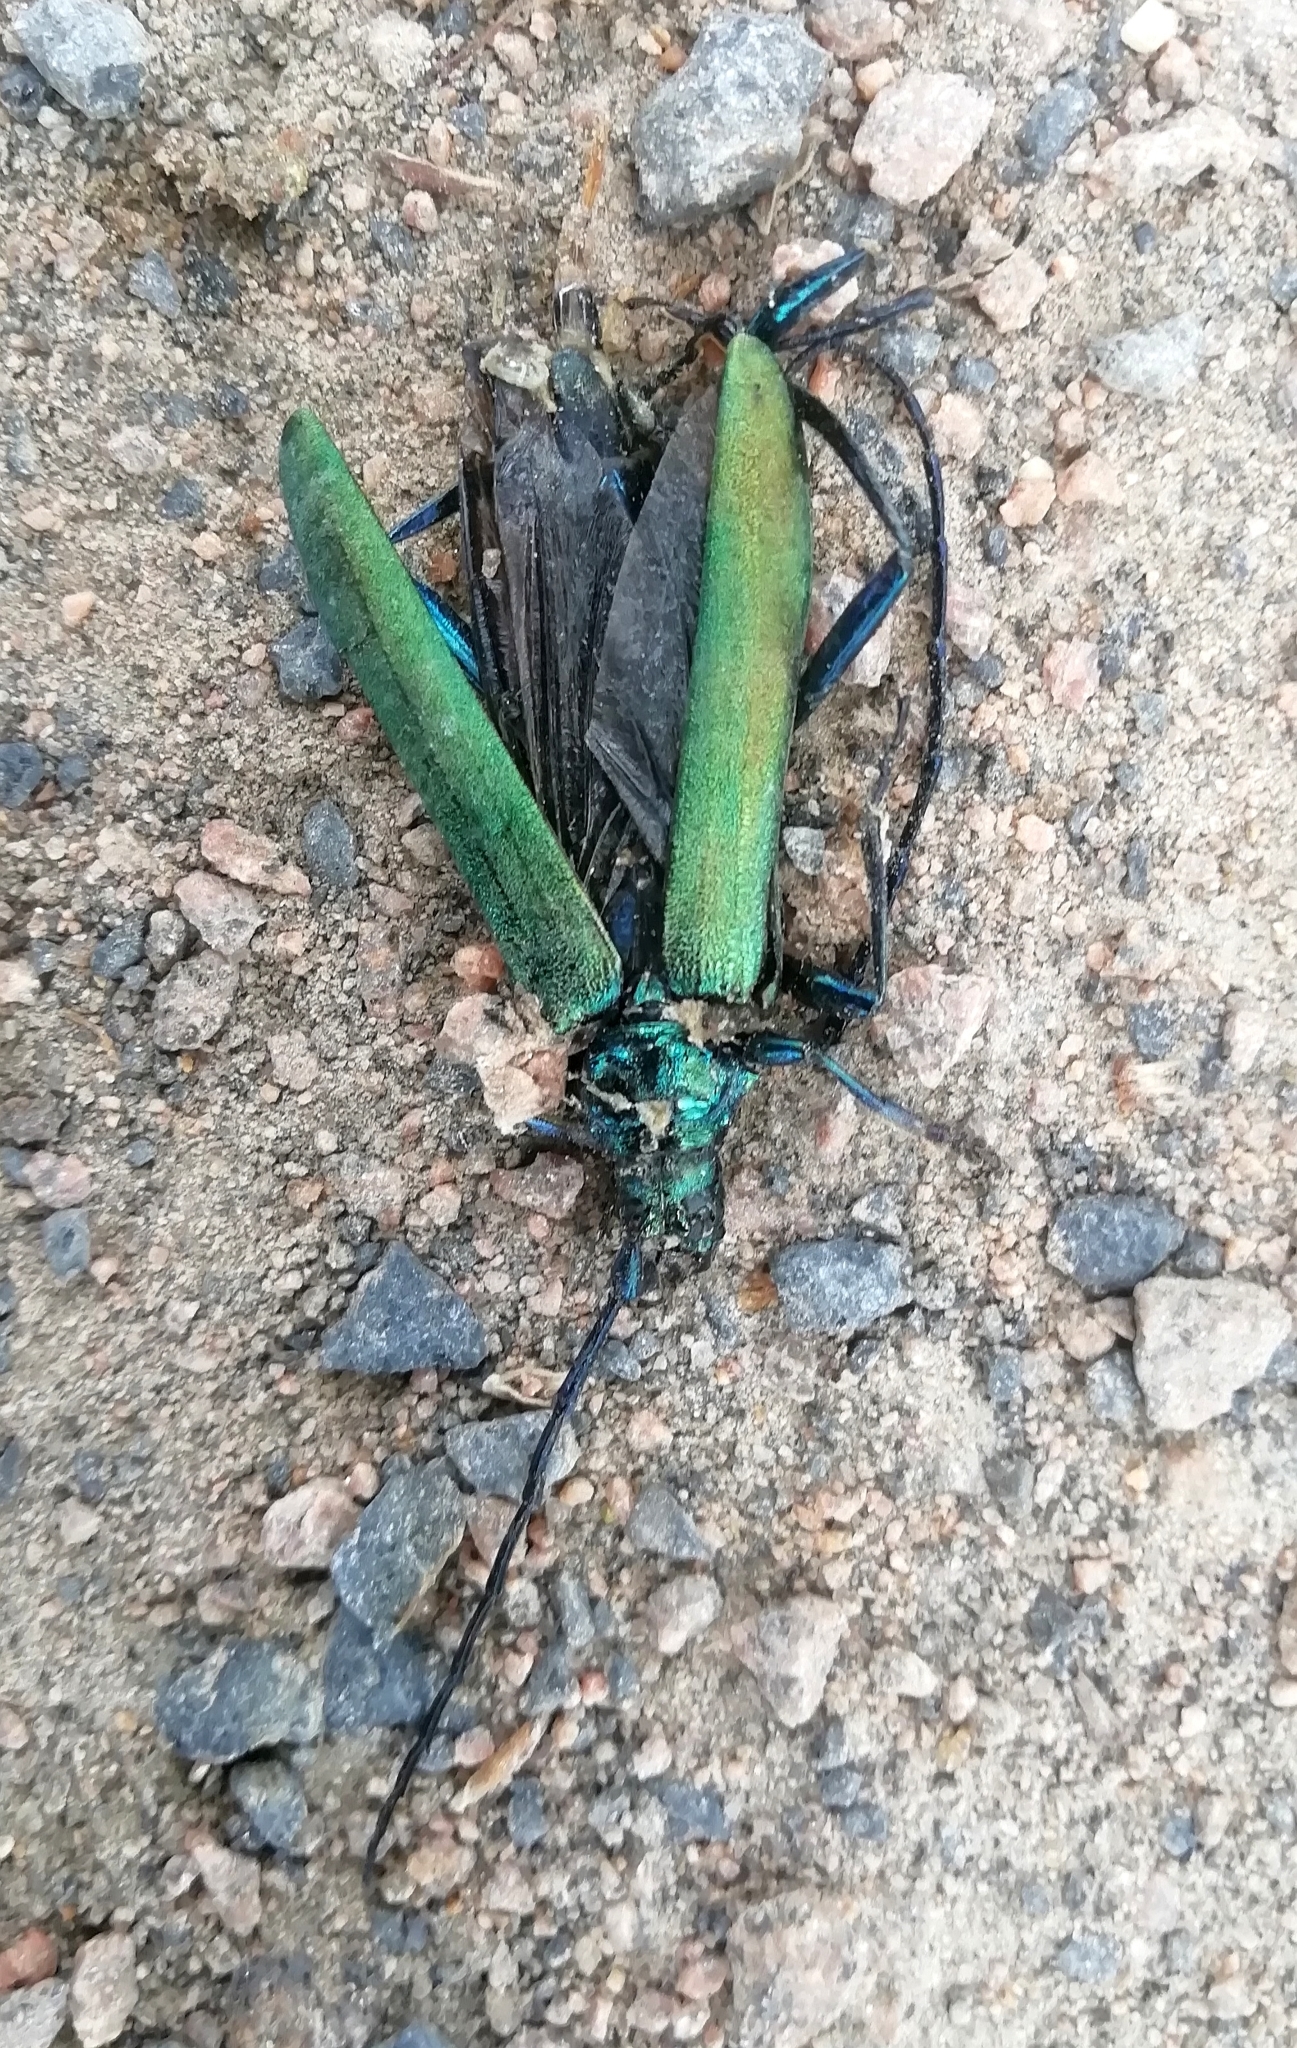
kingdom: Animalia
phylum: Arthropoda
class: Insecta
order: Coleoptera
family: Cerambycidae
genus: Aromia
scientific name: Aromia moschata
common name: Musk beetle
